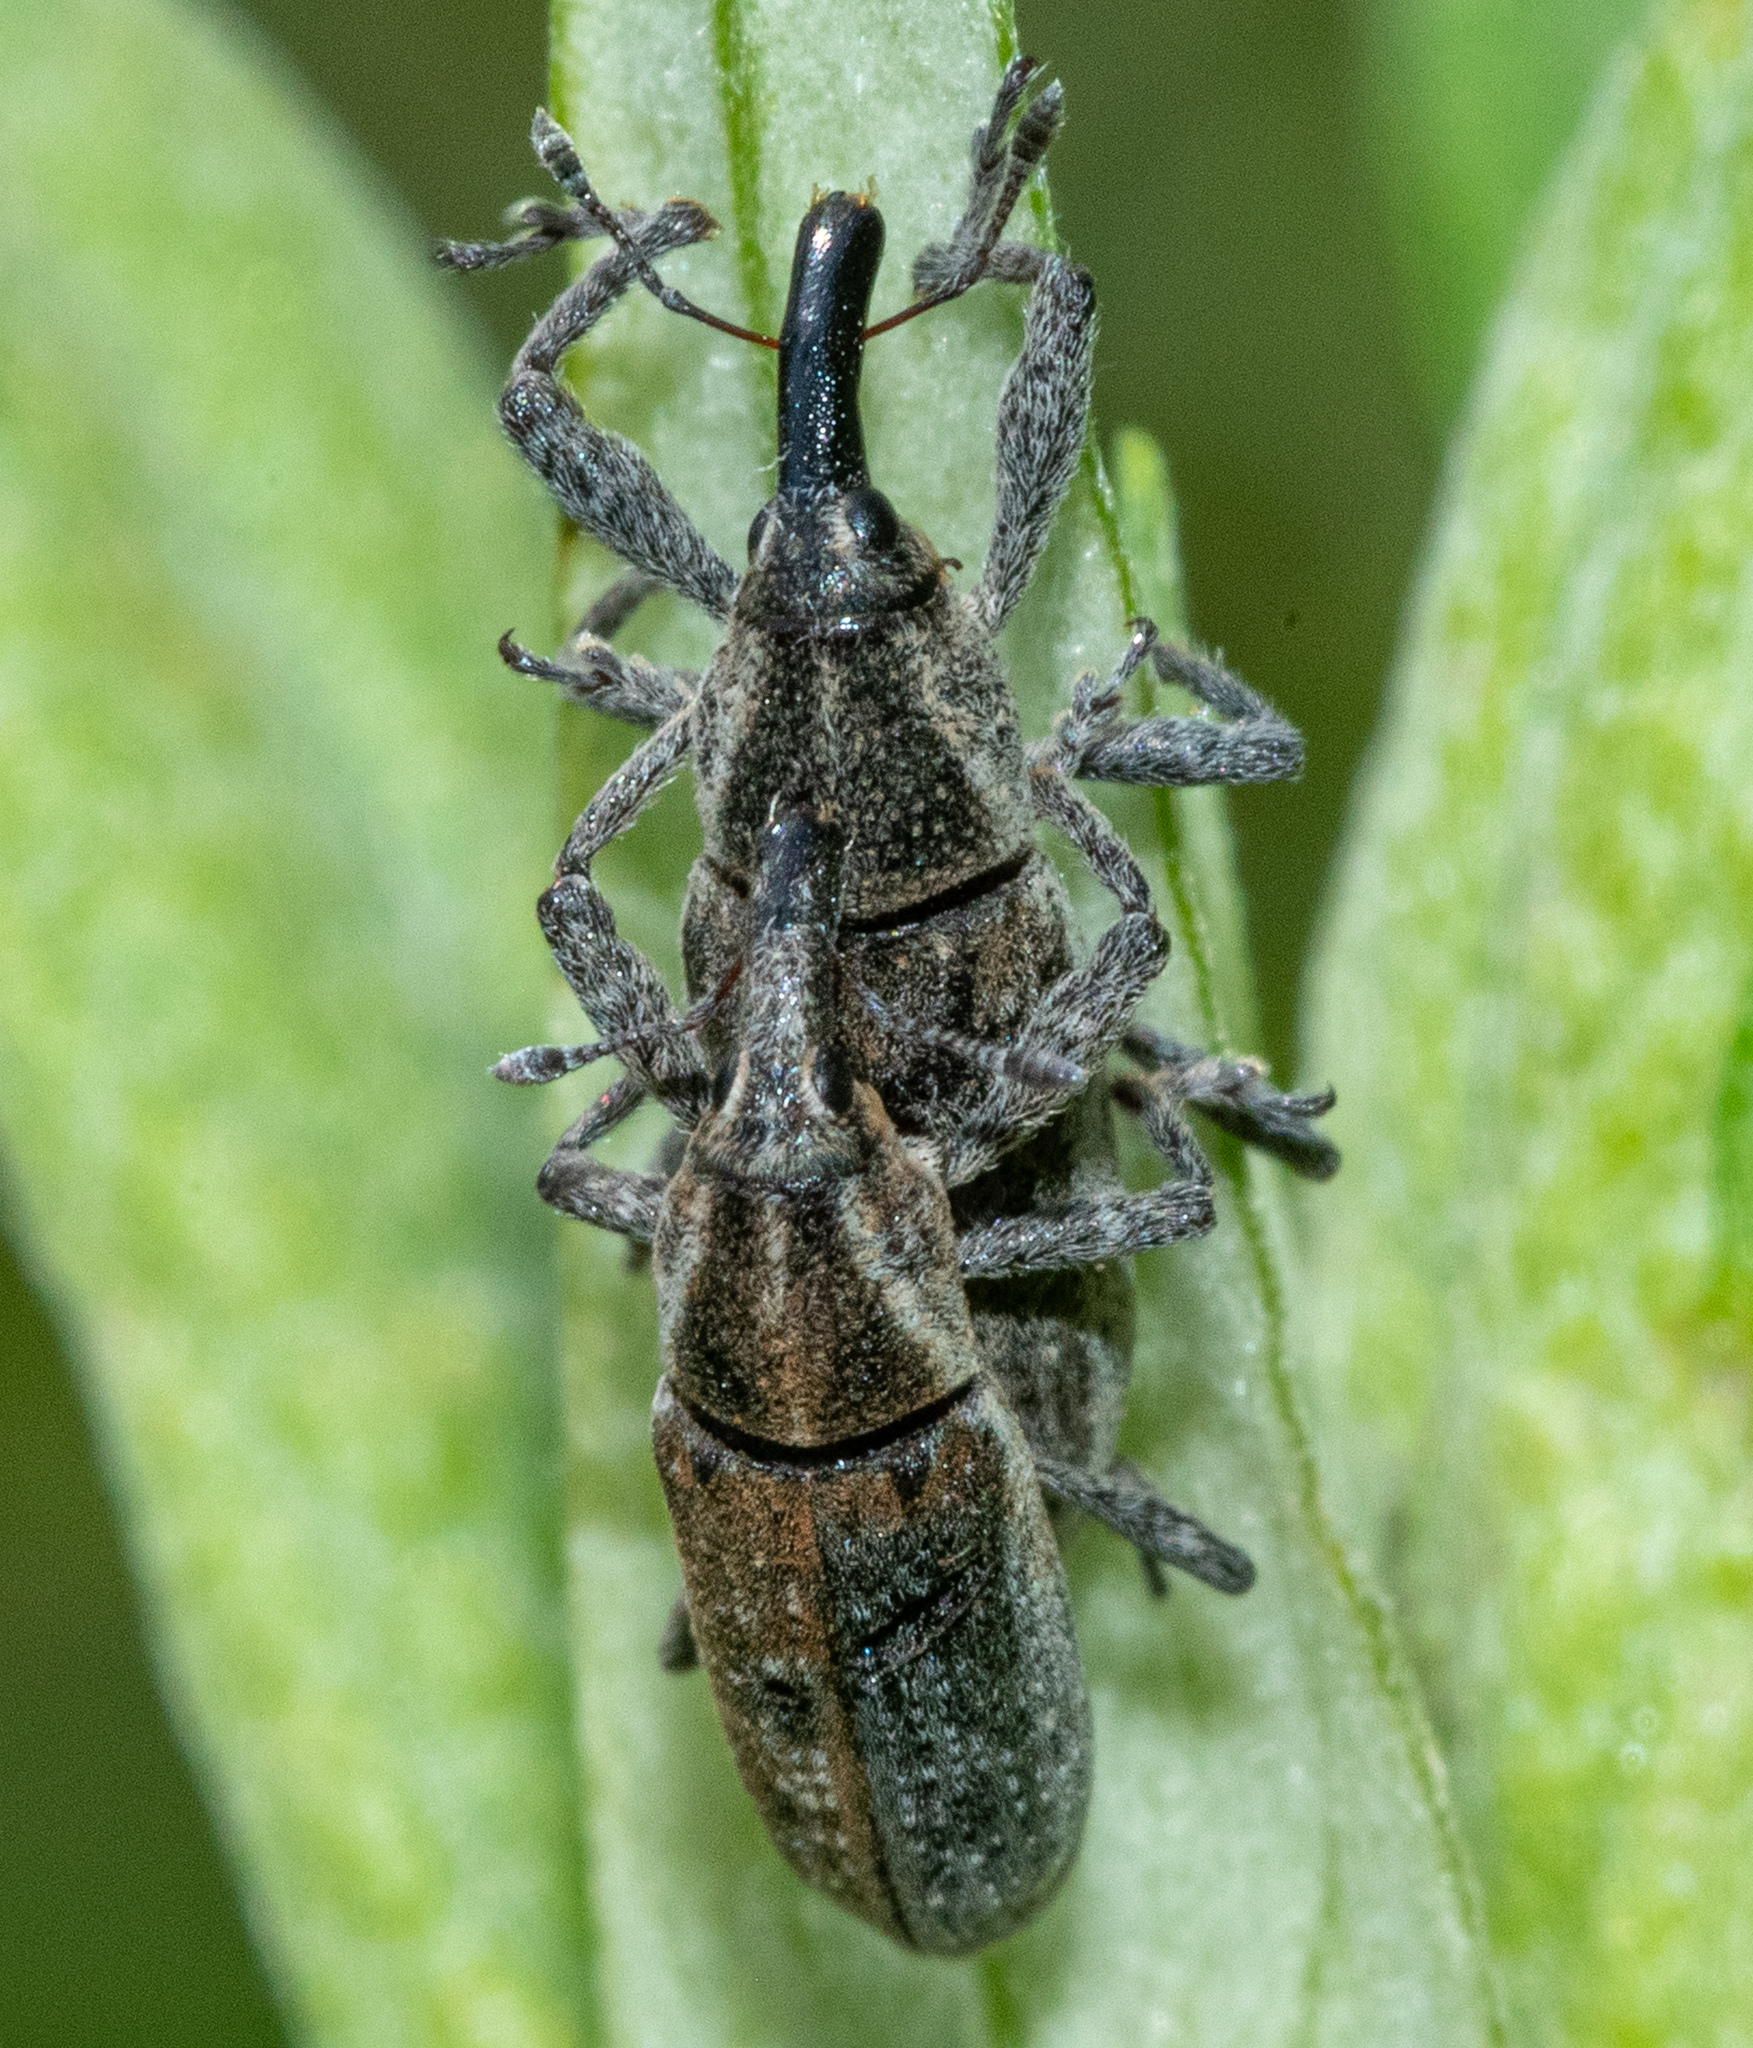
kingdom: Animalia
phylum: Arthropoda
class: Insecta
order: Coleoptera
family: Curculionidae
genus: Lixus
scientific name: Lixus perforatus
